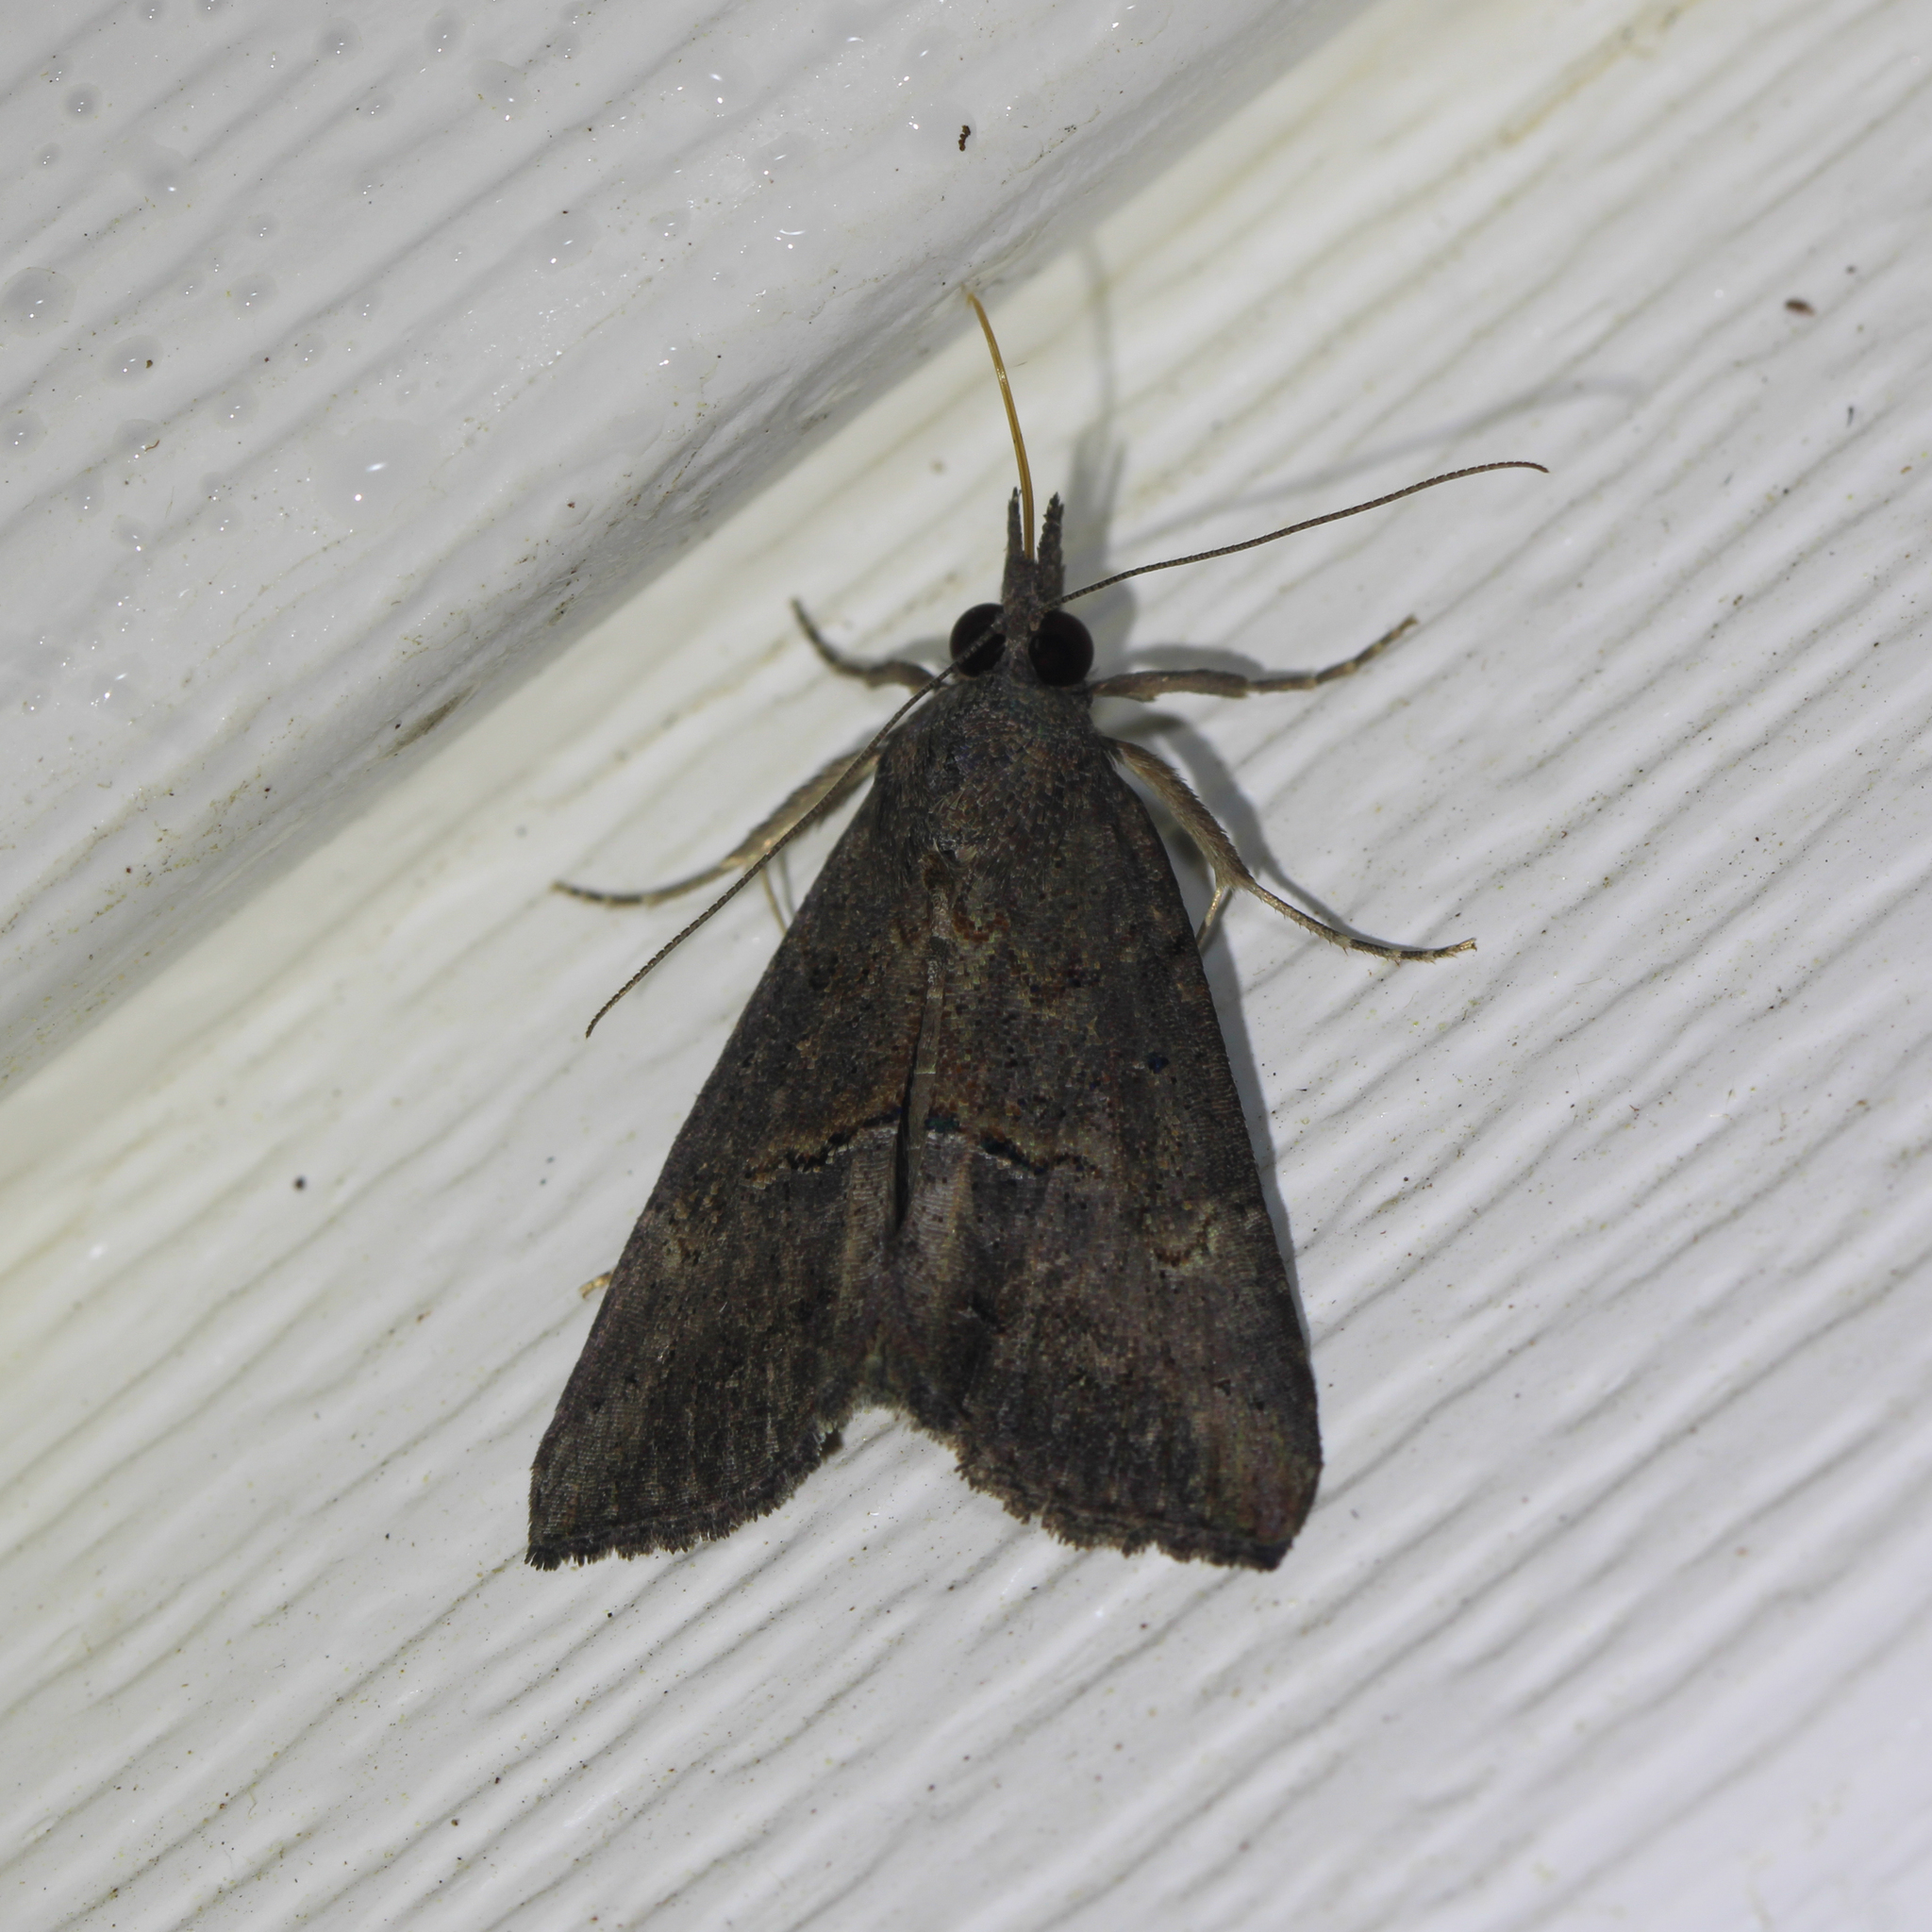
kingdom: Animalia
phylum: Arthropoda
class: Insecta
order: Lepidoptera
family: Erebidae
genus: Hypena
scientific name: Hypena scabra
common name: Green cloverworm
